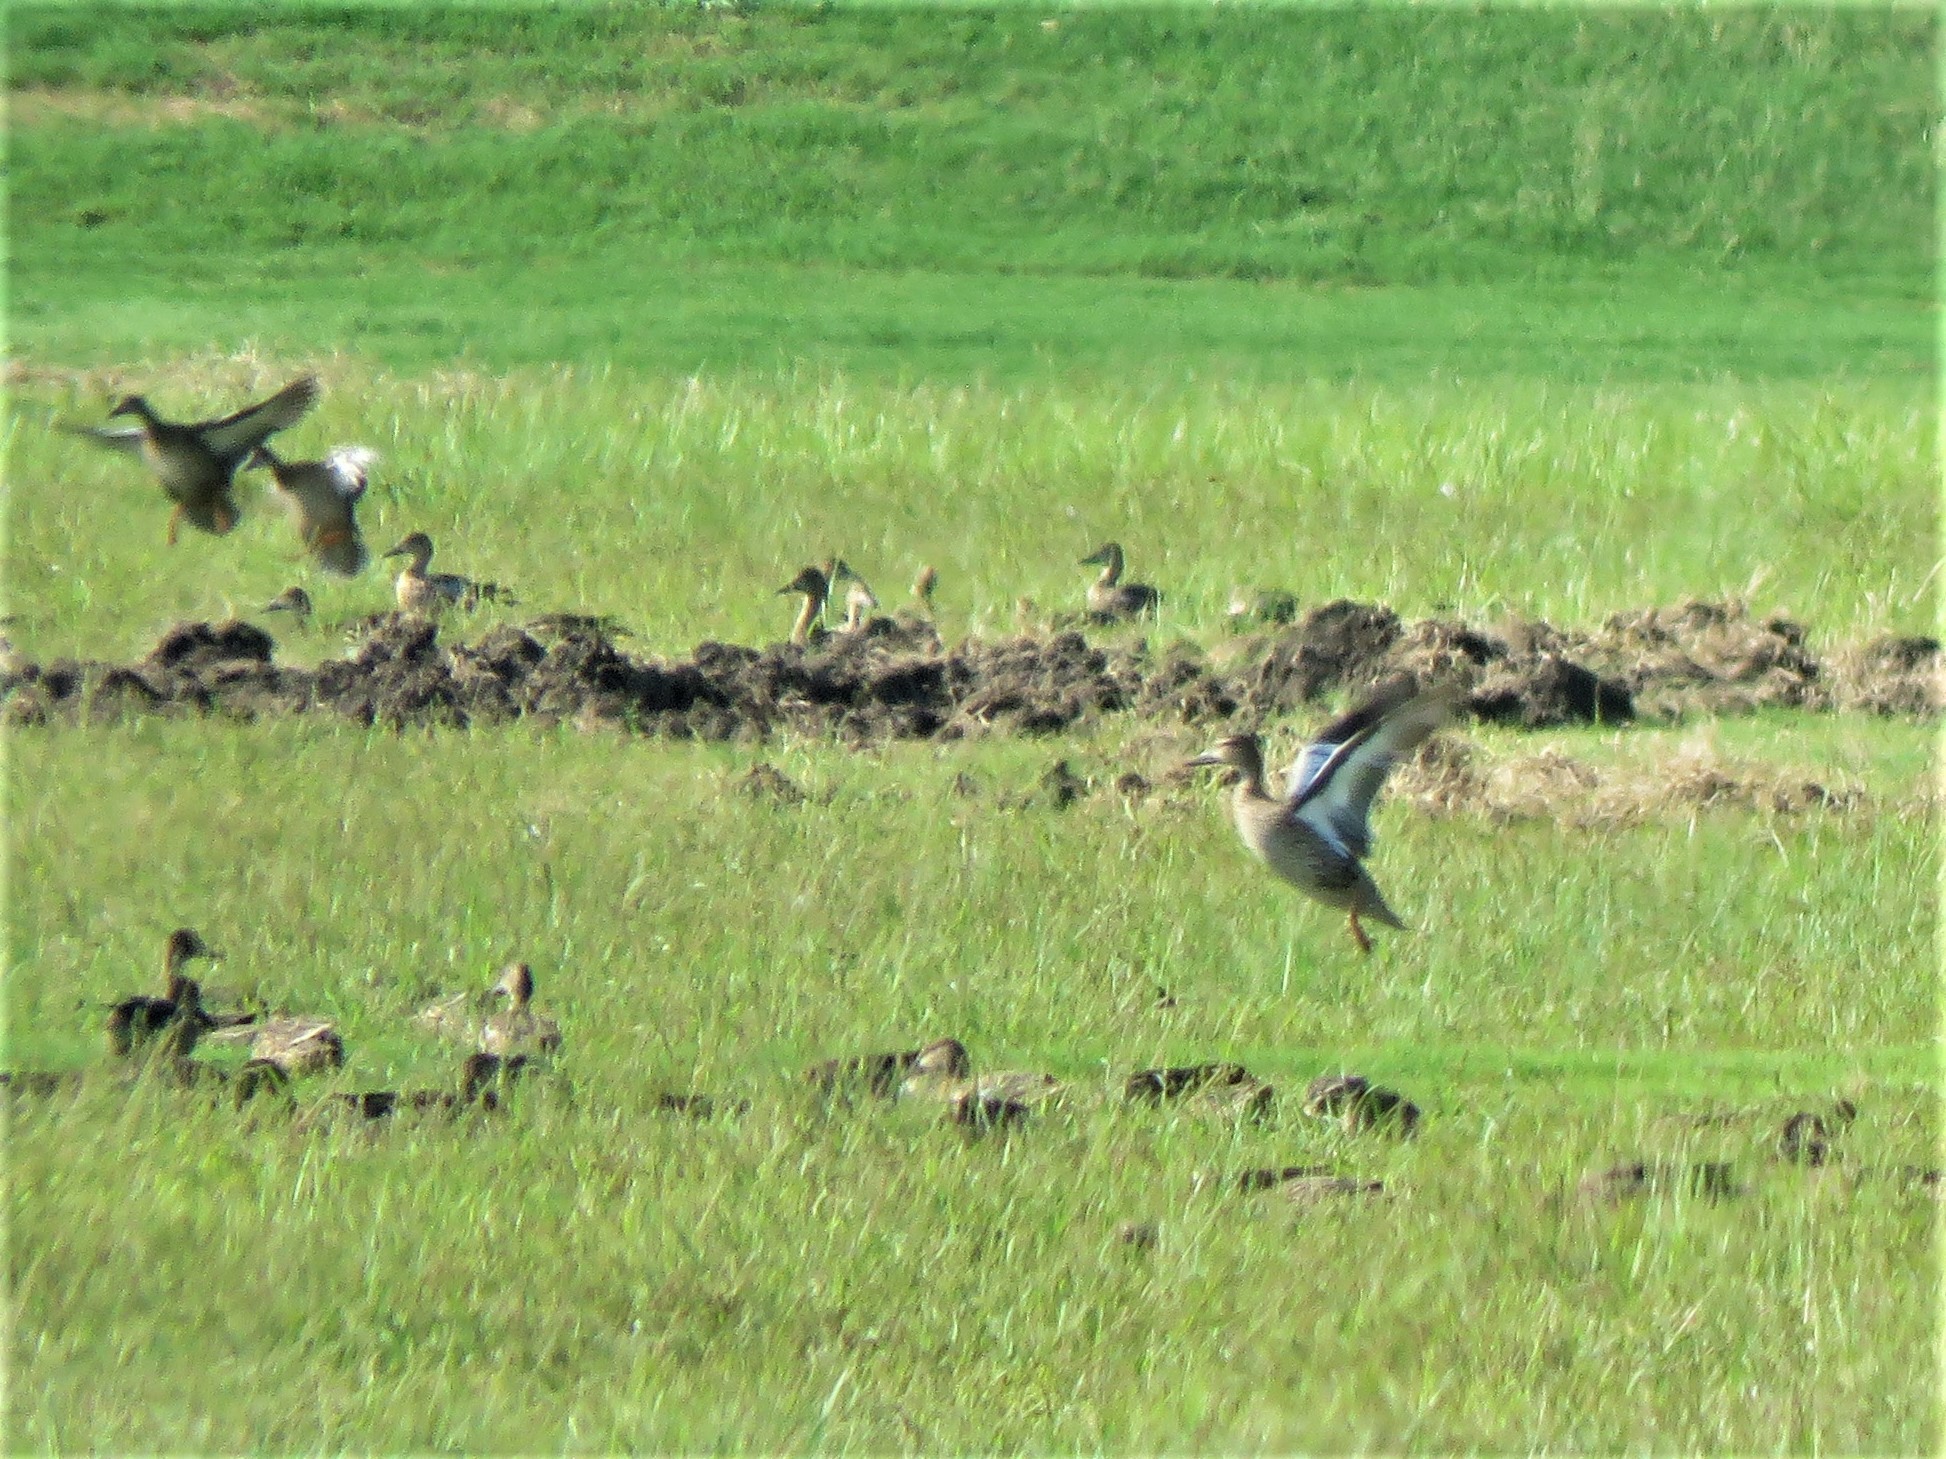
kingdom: Animalia
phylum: Chordata
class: Aves
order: Anseriformes
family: Anatidae
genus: Spatula
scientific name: Spatula discors
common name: Blue-winged teal
